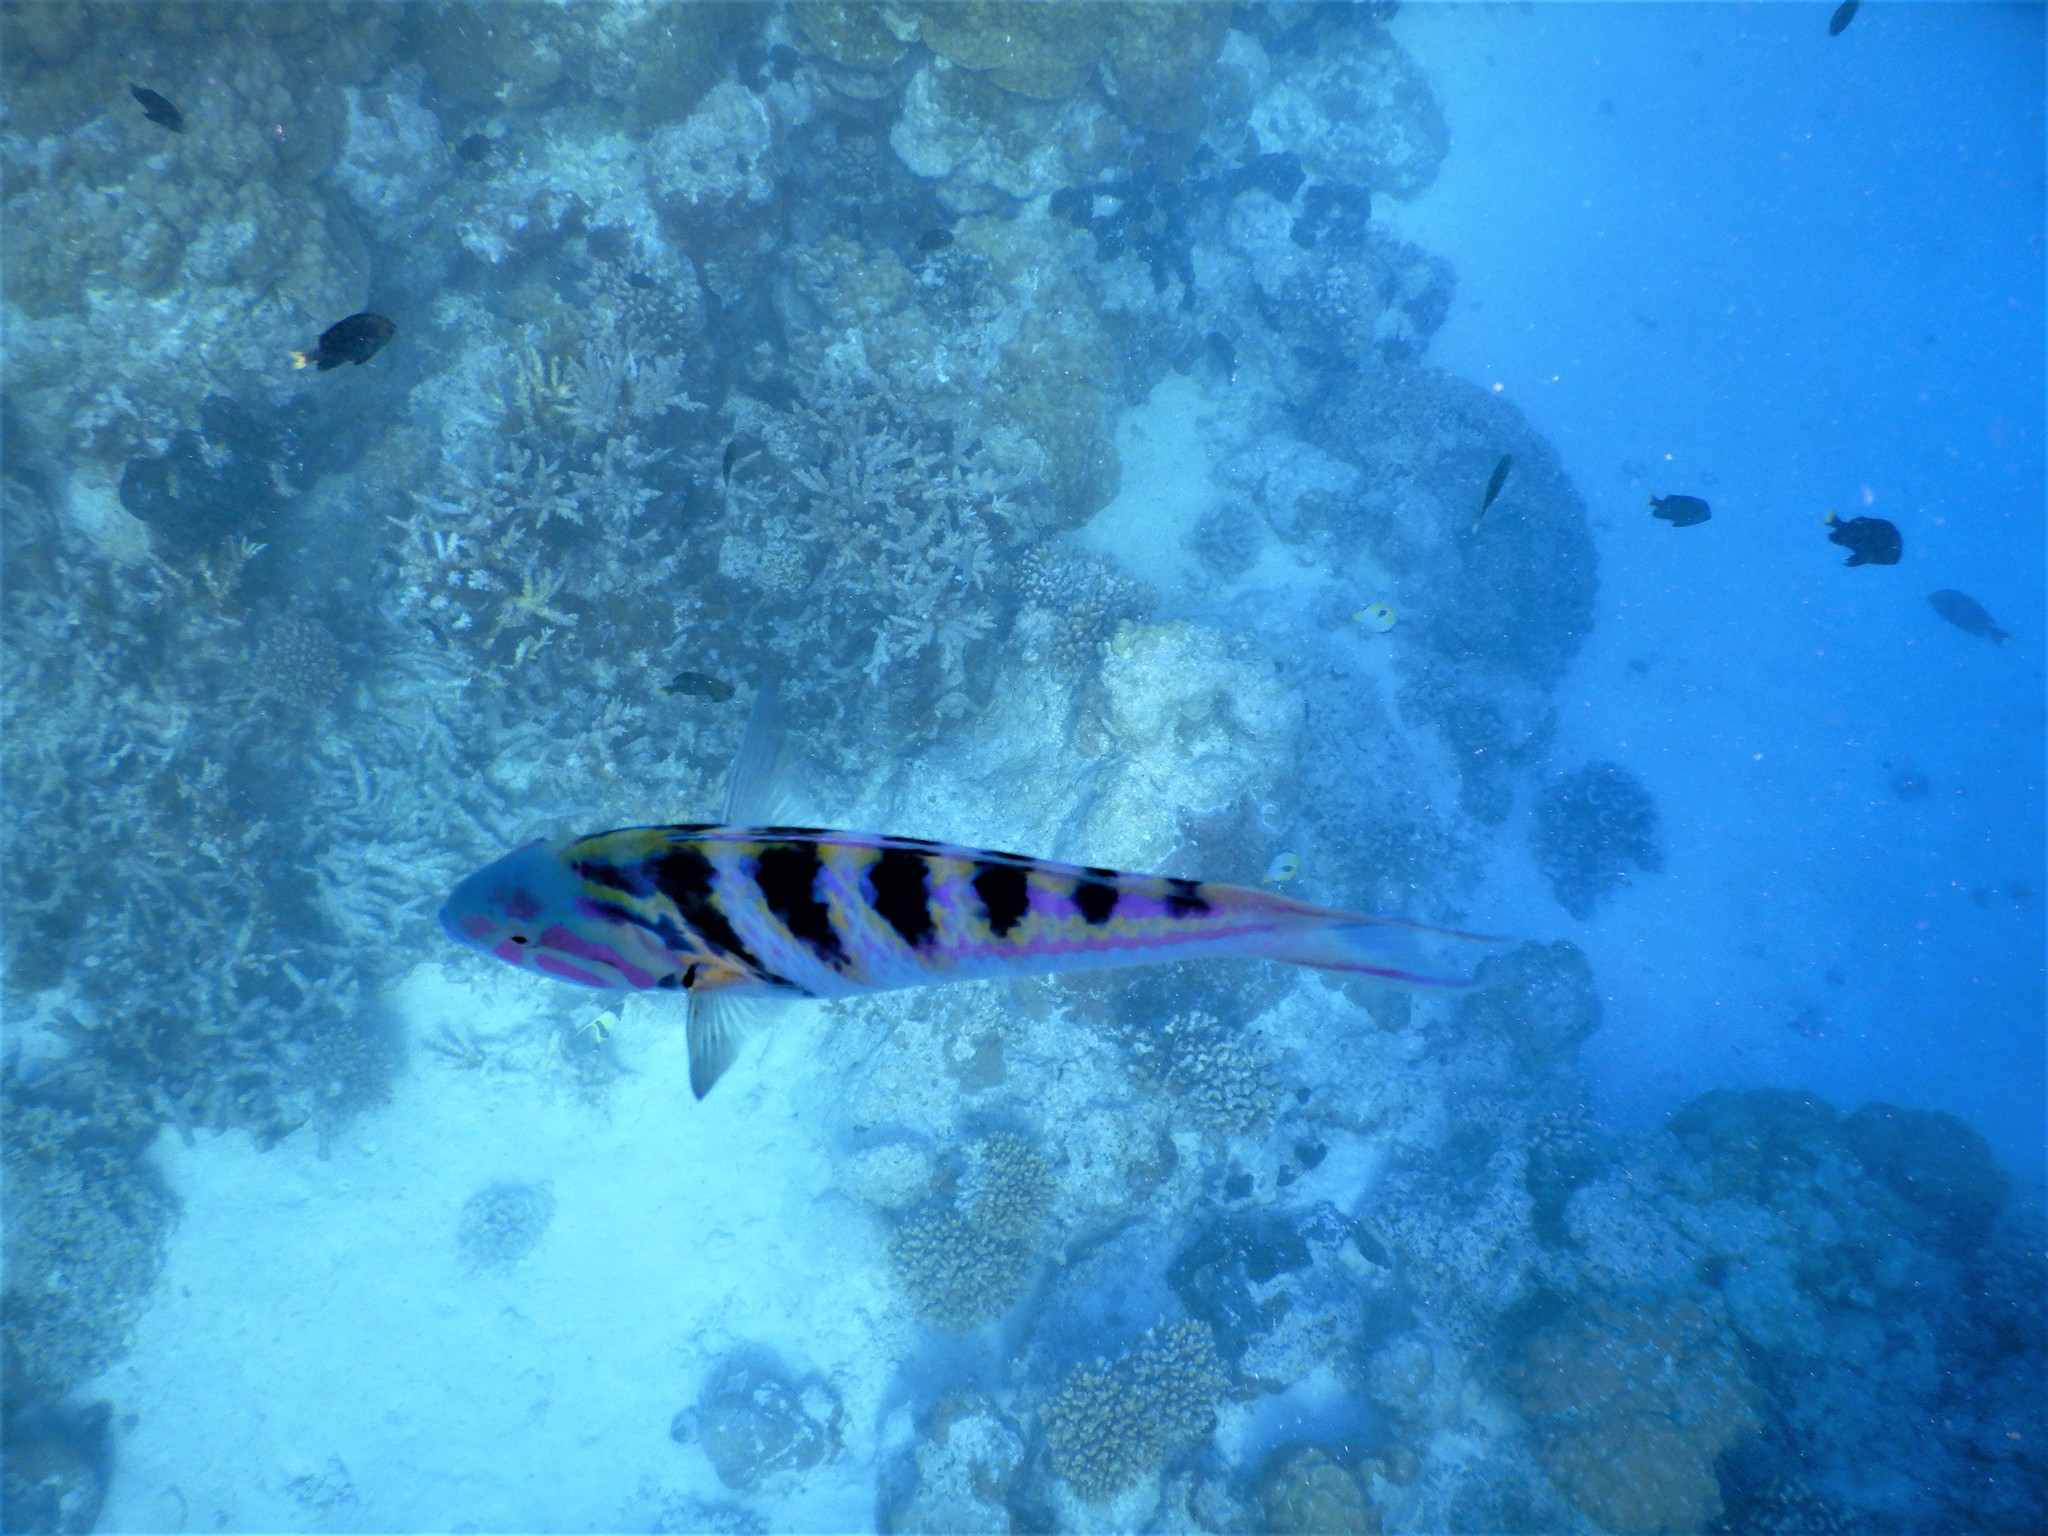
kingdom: Animalia
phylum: Chordata
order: Perciformes
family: Labridae
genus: Thalassoma
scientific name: Thalassoma hardwicke
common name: Sixbar wrasse
